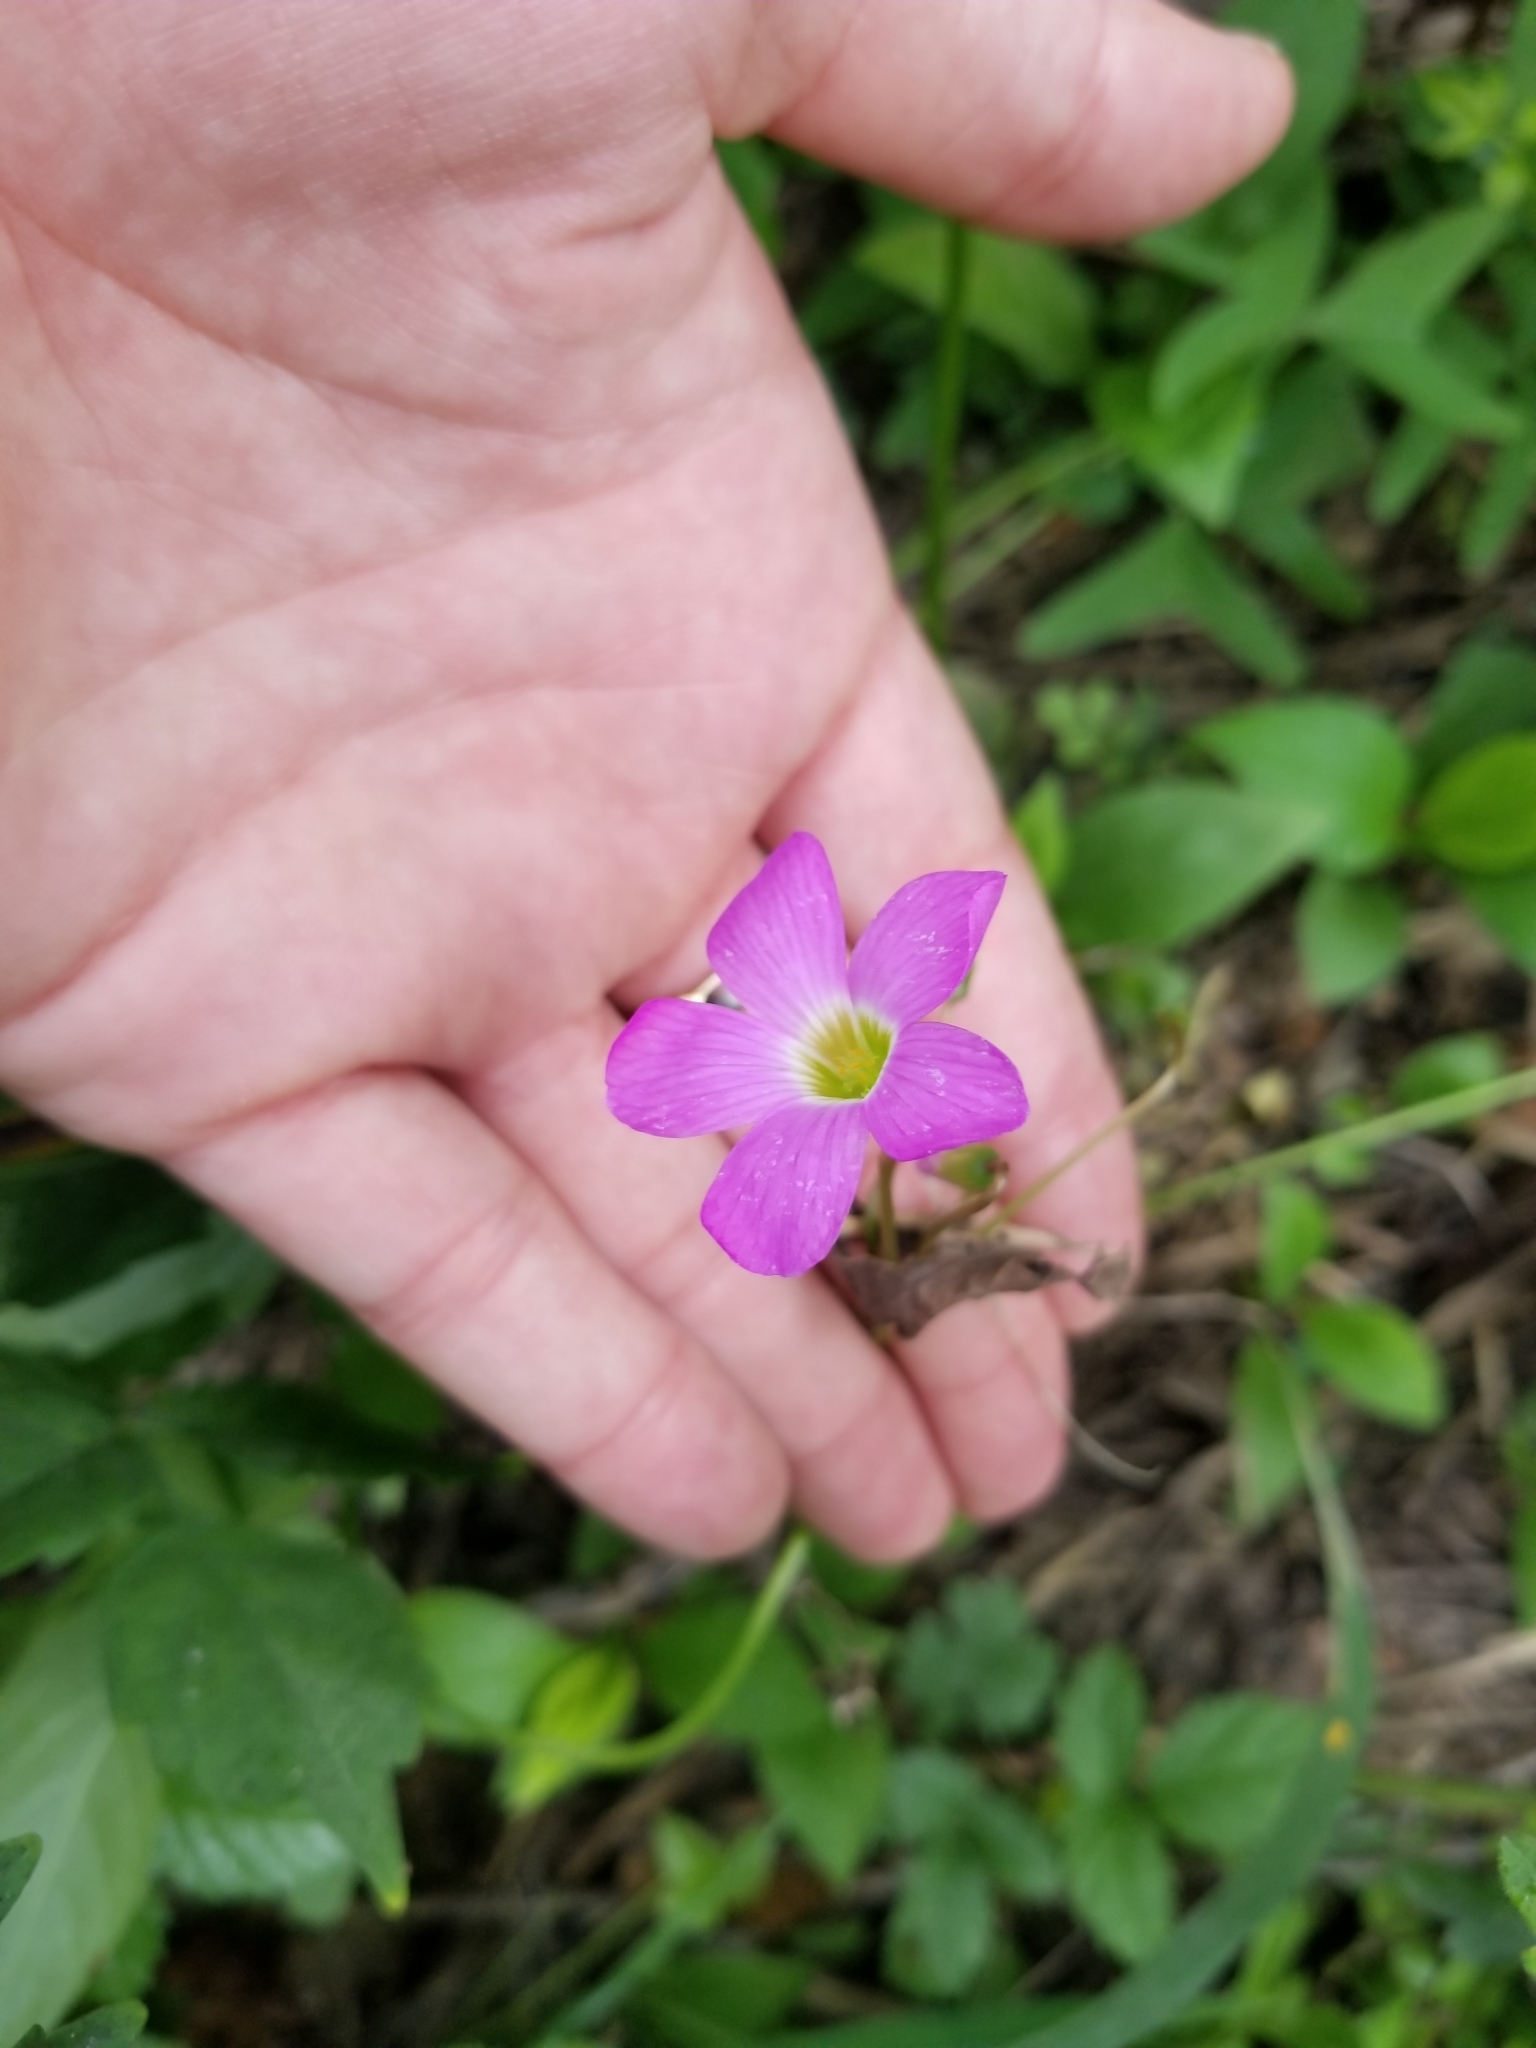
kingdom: Plantae
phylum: Tracheophyta
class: Magnoliopsida
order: Oxalidales
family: Oxalidaceae
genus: Oxalis
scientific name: Oxalis drummondii
